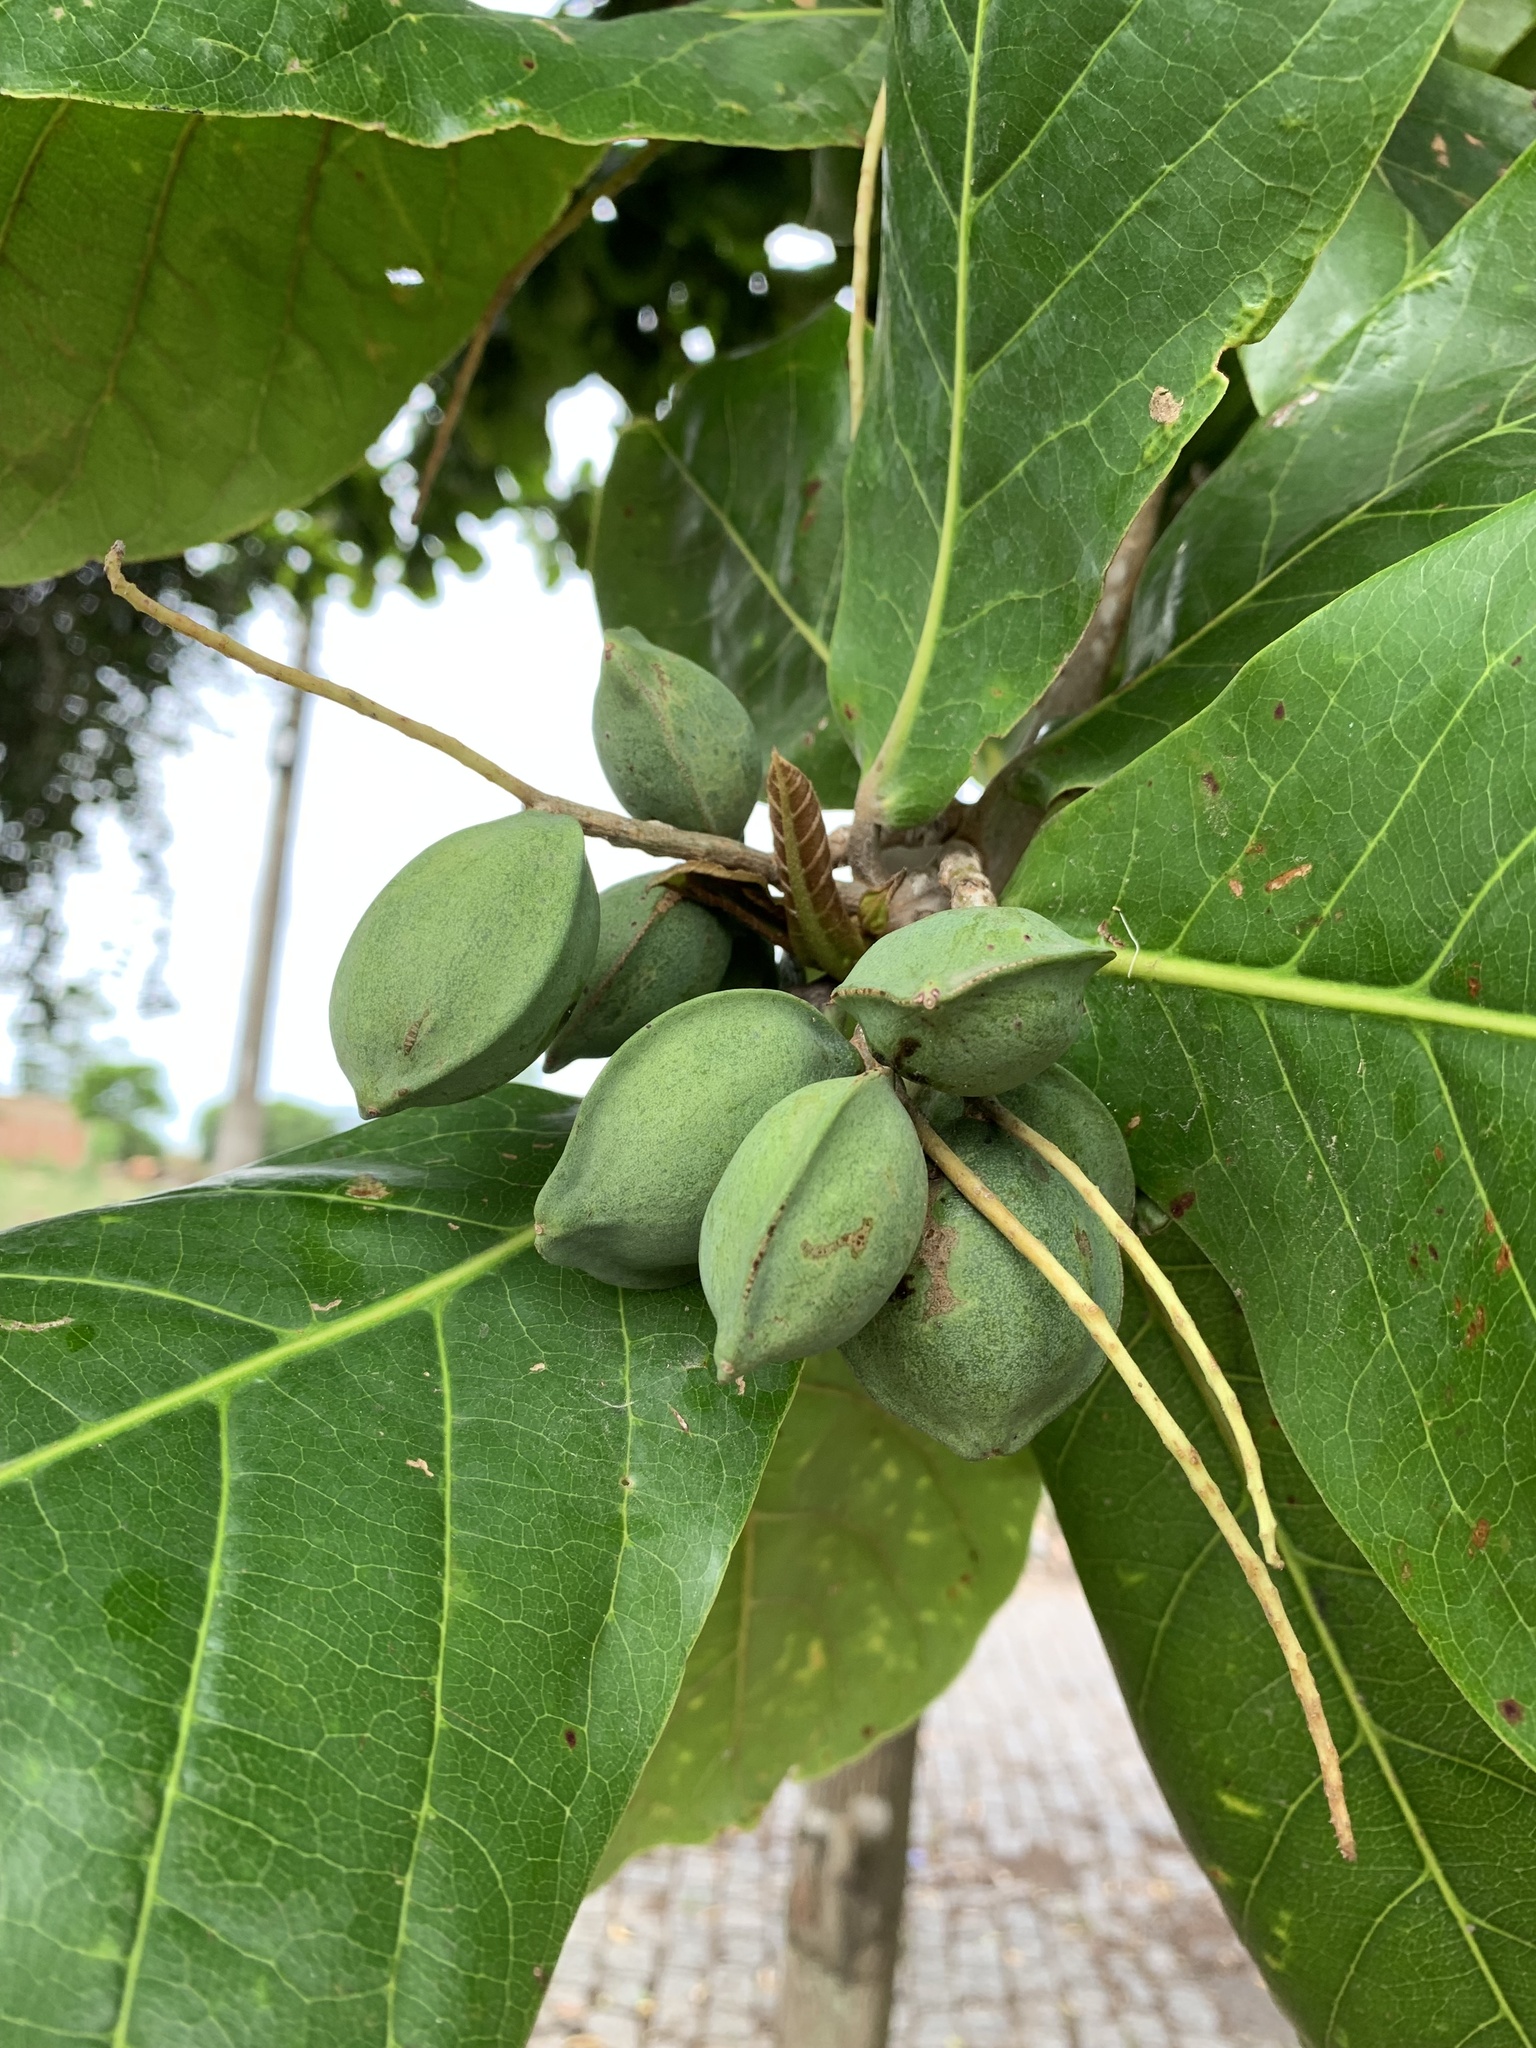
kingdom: Plantae
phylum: Tracheophyta
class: Magnoliopsida
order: Myrtales
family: Combretaceae
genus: Terminalia
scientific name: Terminalia catappa
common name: Tropical almond
